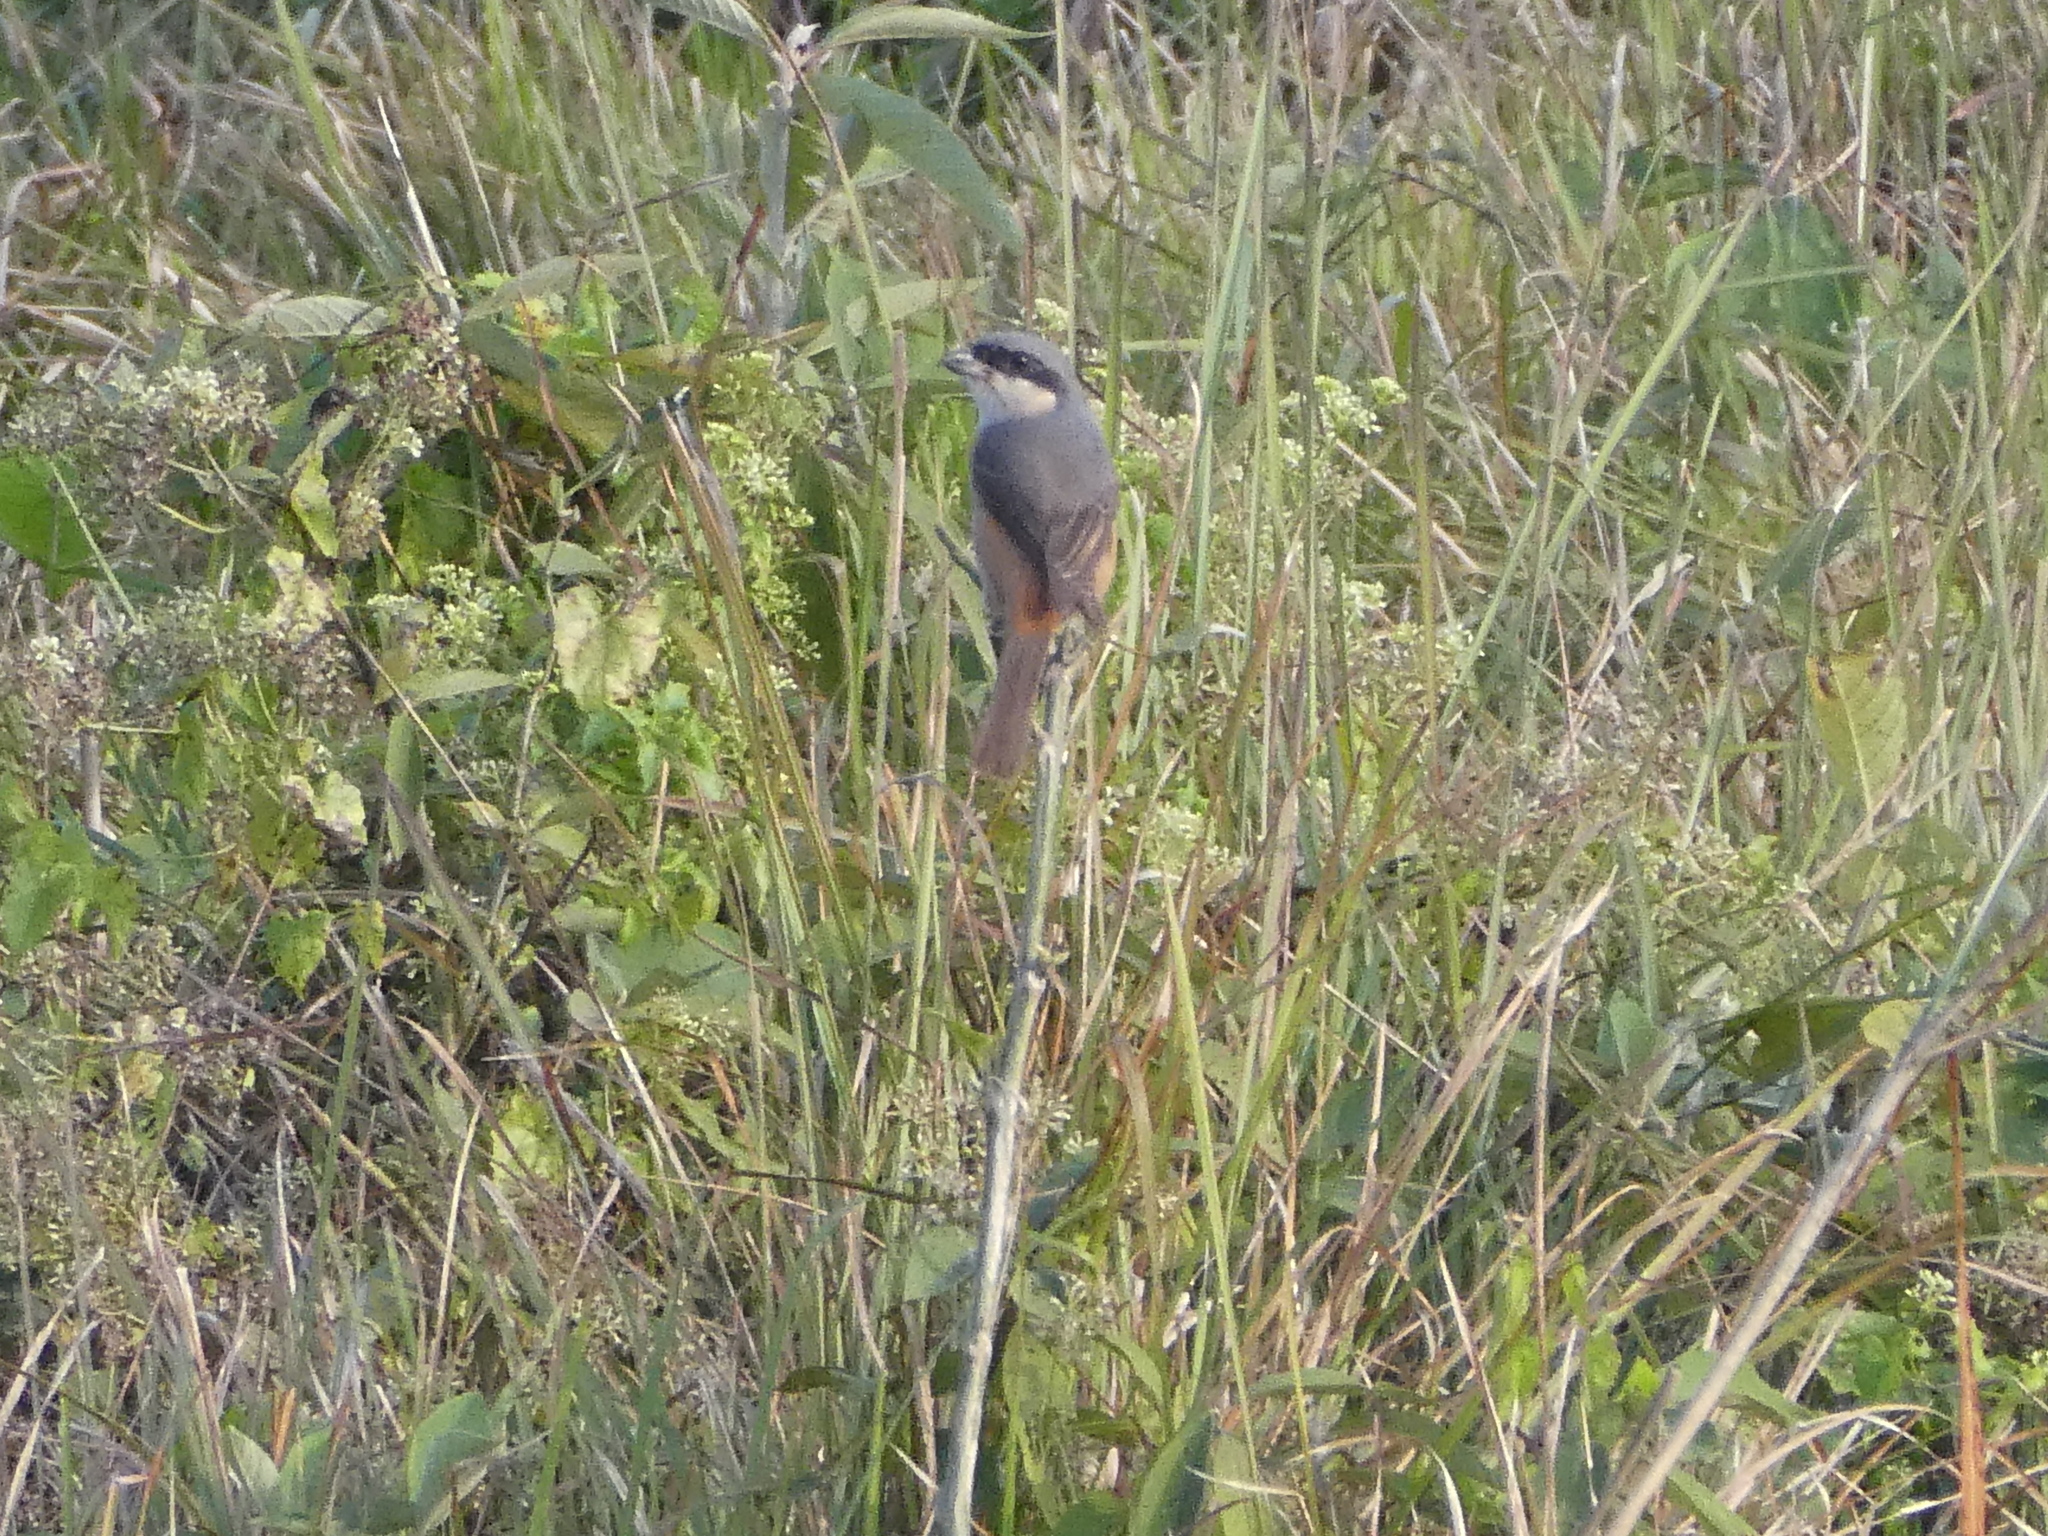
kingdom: Animalia
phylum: Chordata
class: Aves
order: Passeriformes
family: Laniidae
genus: Lanius
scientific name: Lanius tephronotus
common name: Grey-backed shrike
